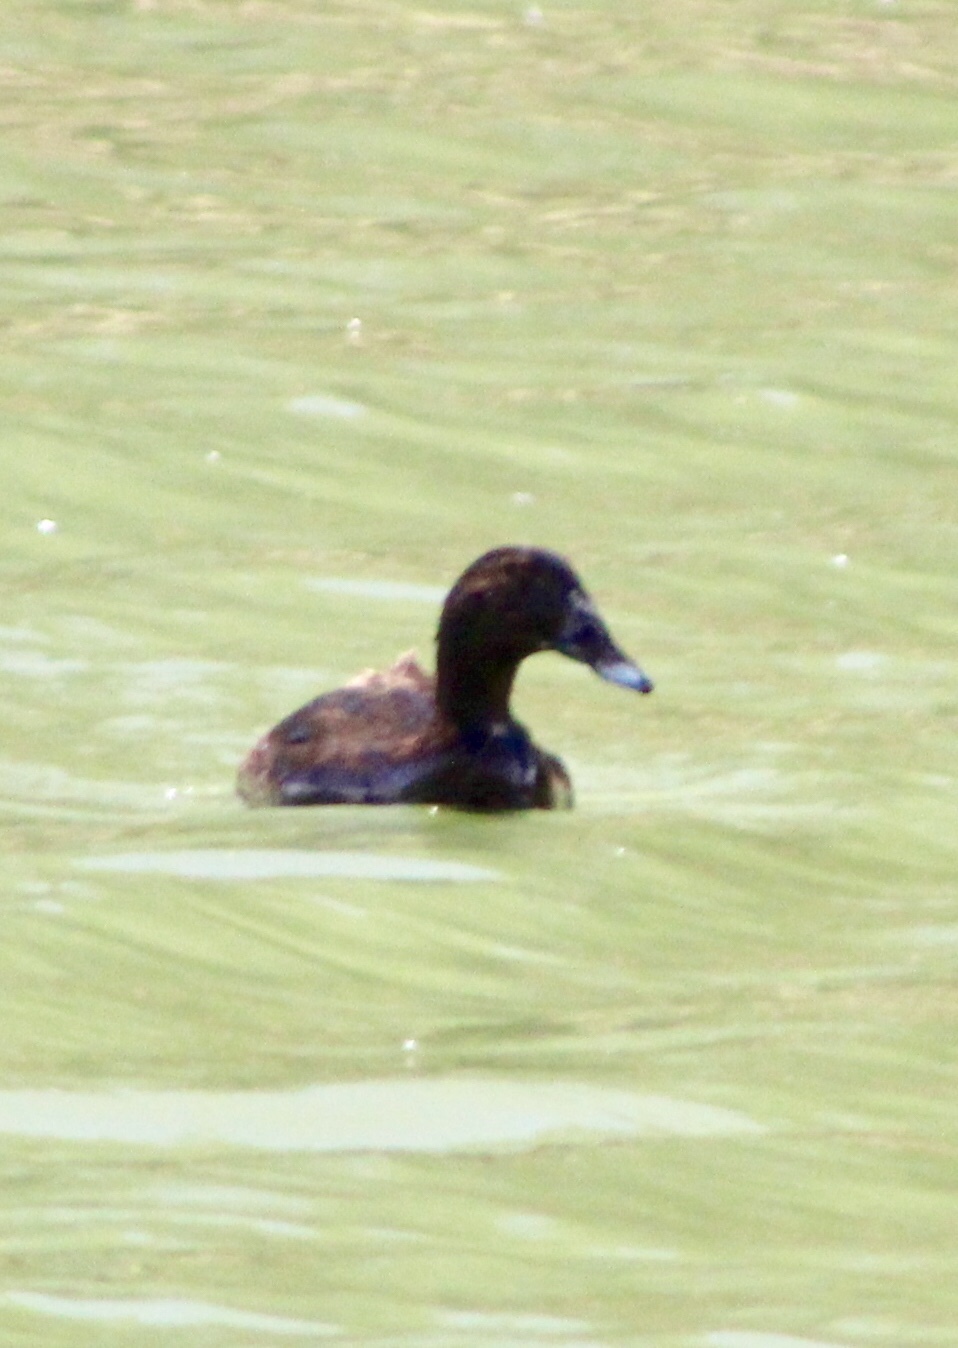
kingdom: Animalia
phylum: Chordata
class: Aves
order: Anseriformes
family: Anatidae
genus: Anas
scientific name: Anas platyrhynchos
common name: Mallard
